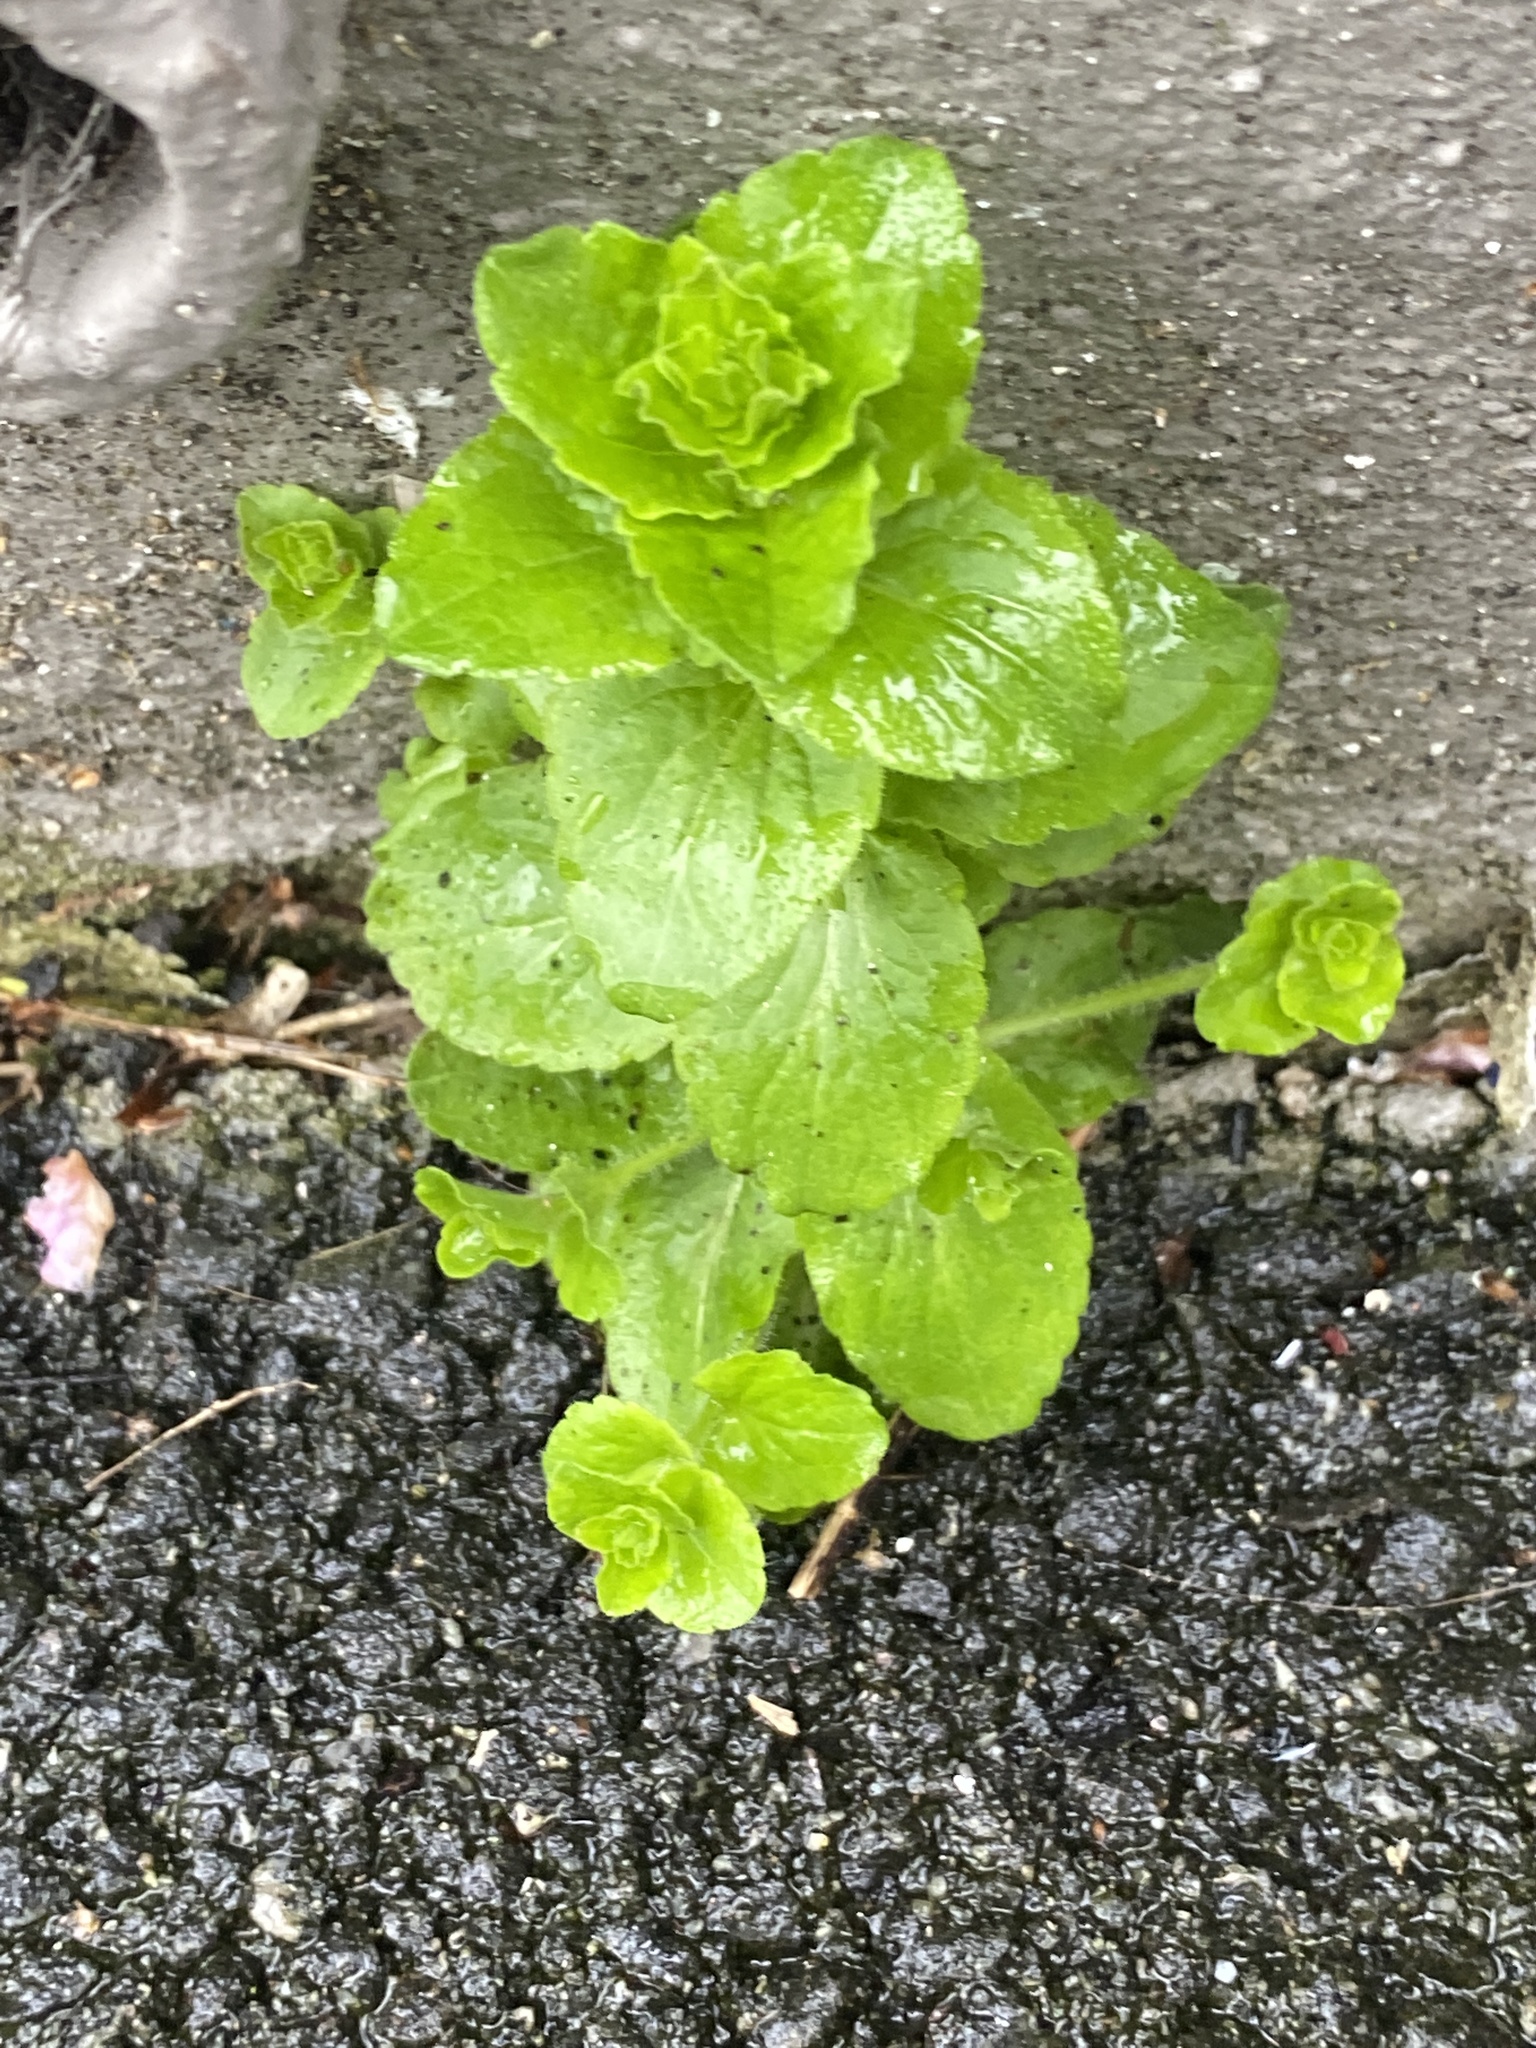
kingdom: Plantae
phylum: Tracheophyta
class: Magnoliopsida
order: Asterales
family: Campanulaceae
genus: Triodanis
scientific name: Triodanis perfoliata
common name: Clasping venus' looking-glass
